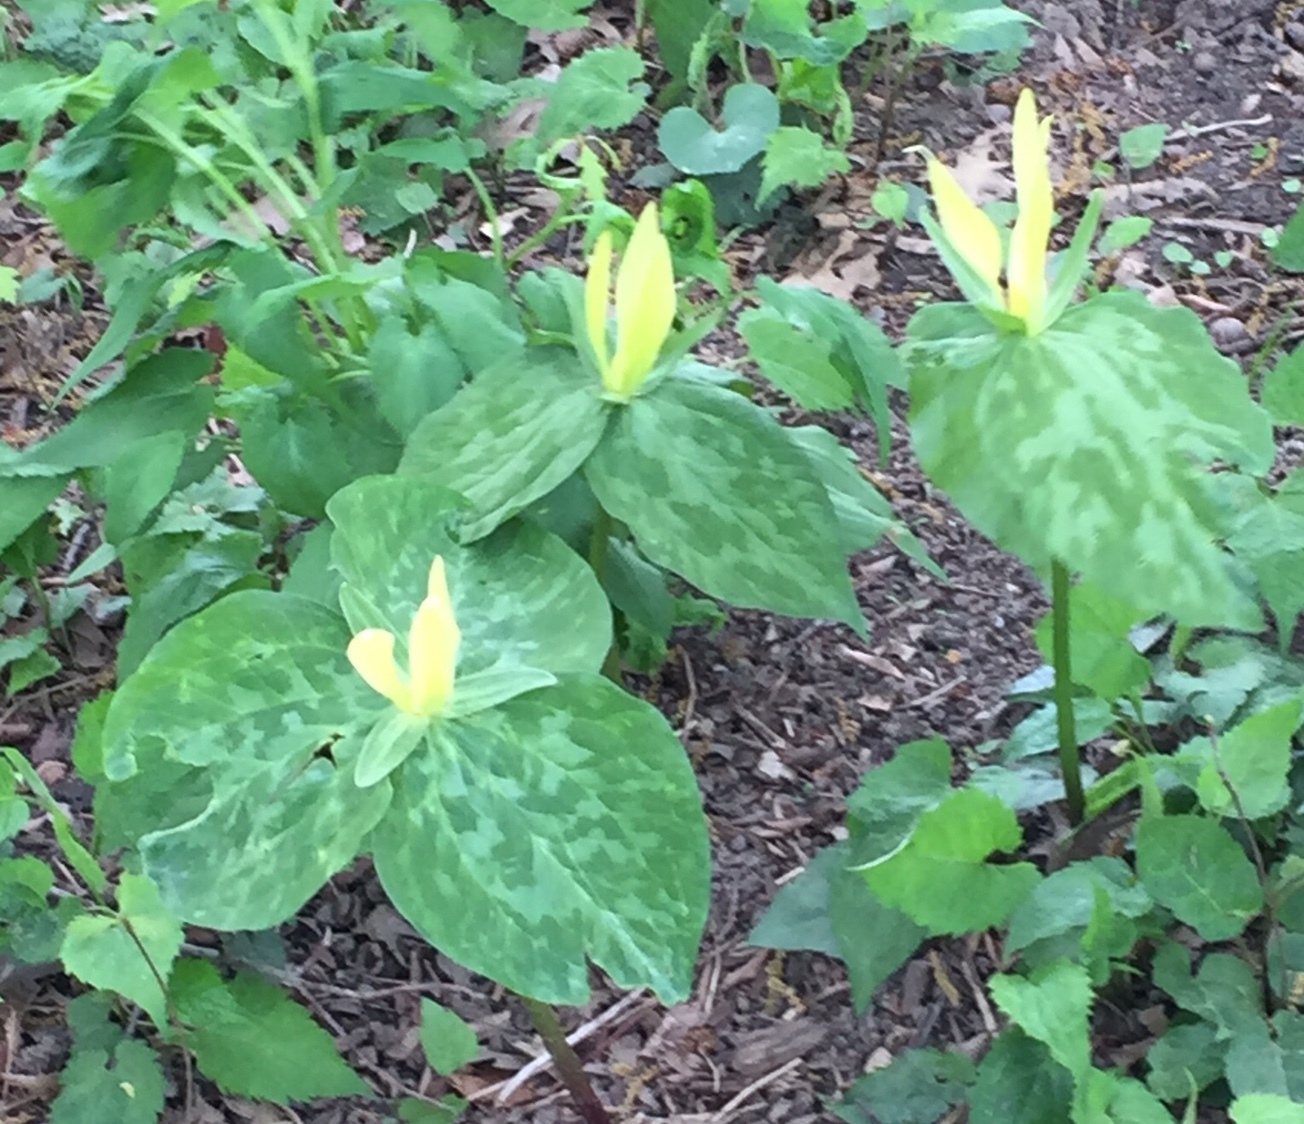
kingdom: Plantae
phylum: Tracheophyta
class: Liliopsida
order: Liliales
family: Melanthiaceae
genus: Trillium
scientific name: Trillium luteum
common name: Wax trillium
